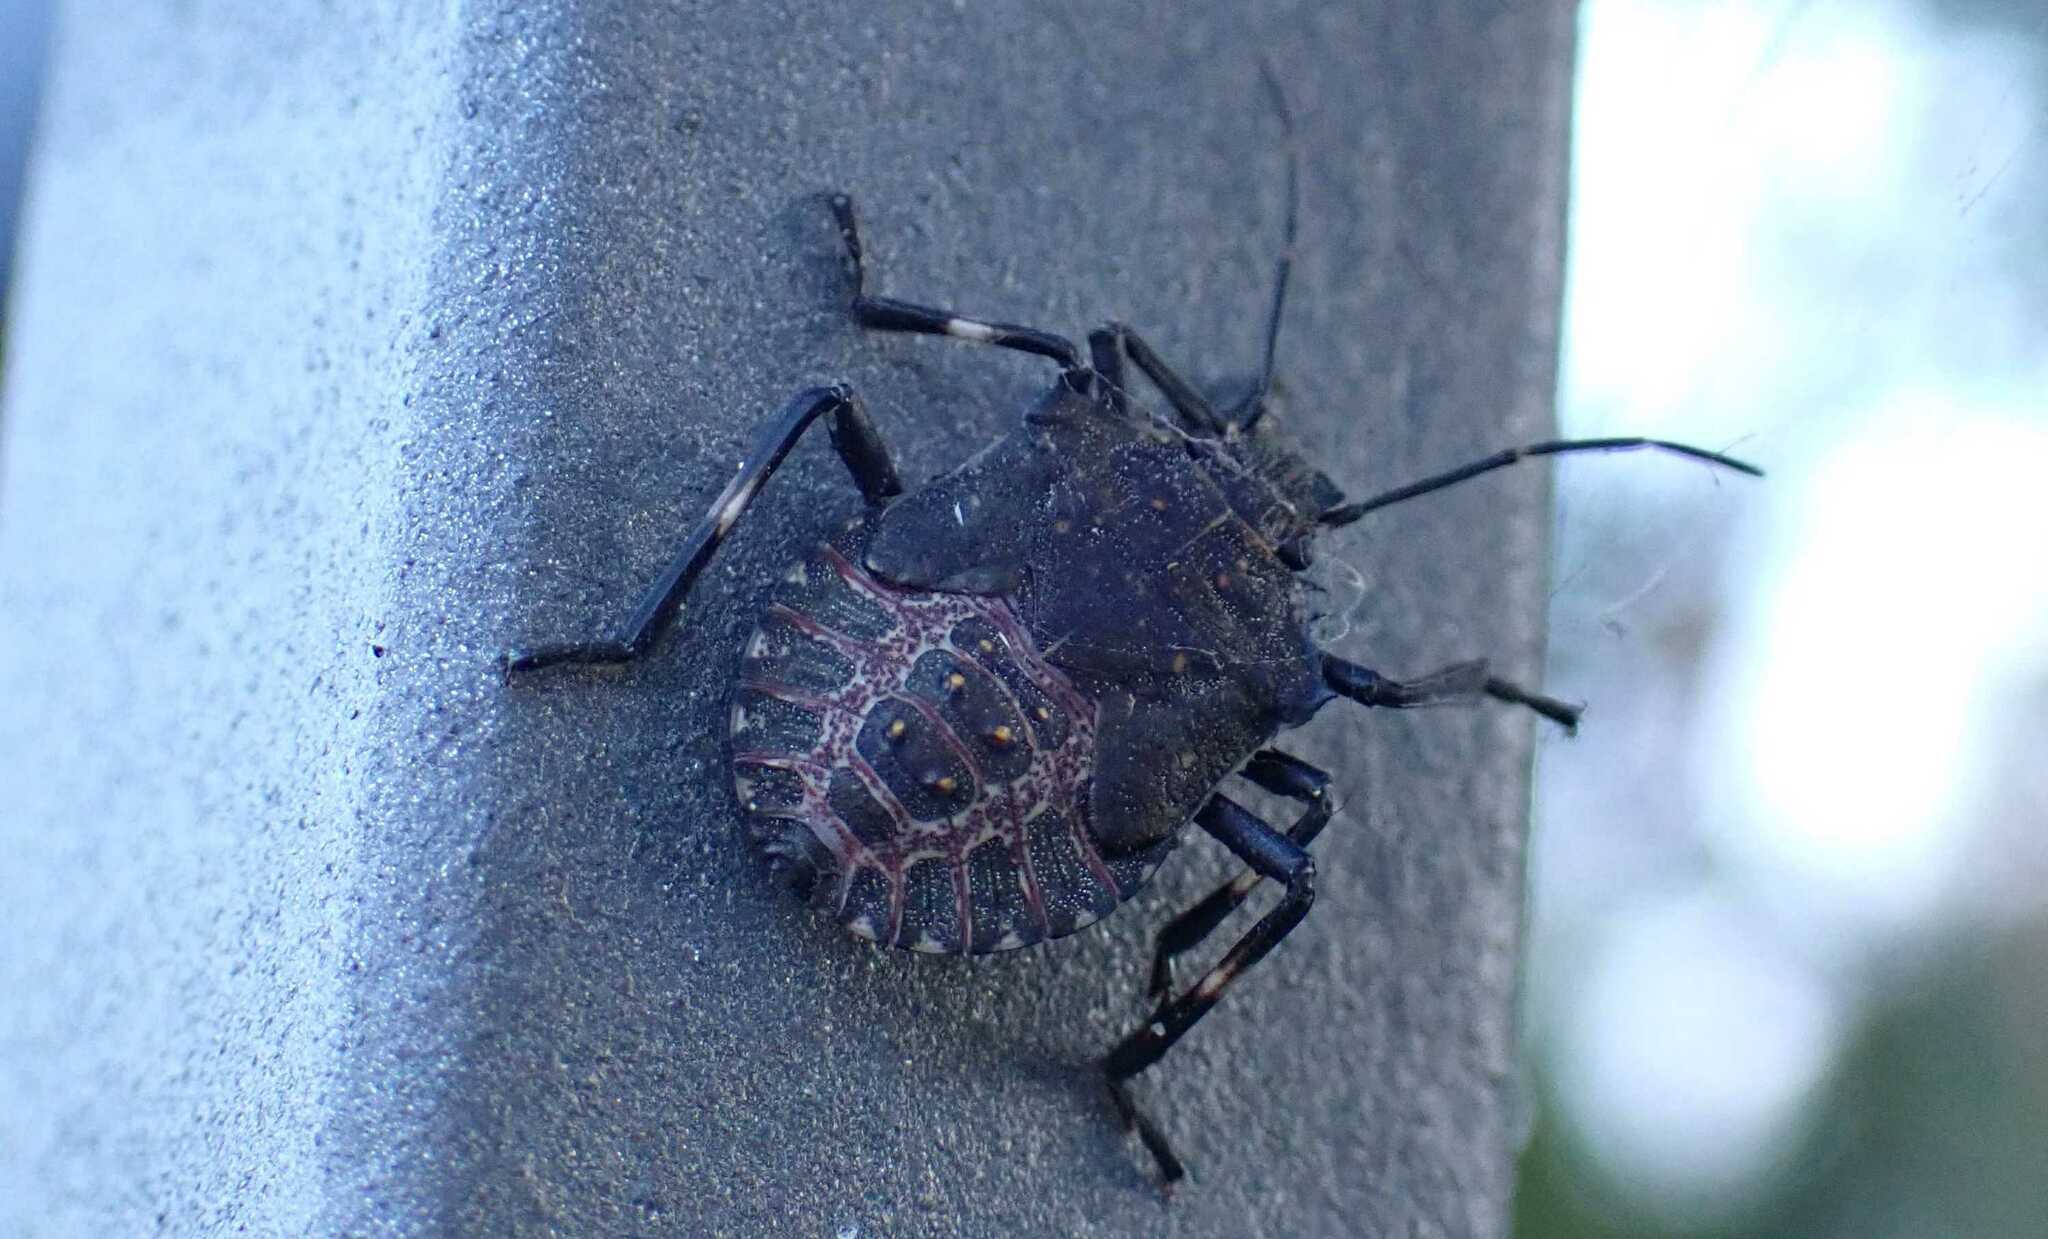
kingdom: Animalia
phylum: Arthropoda
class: Insecta
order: Hemiptera
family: Pentatomidae
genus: Halyomorpha
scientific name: Halyomorpha halys
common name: Brown marmorated stink bug
